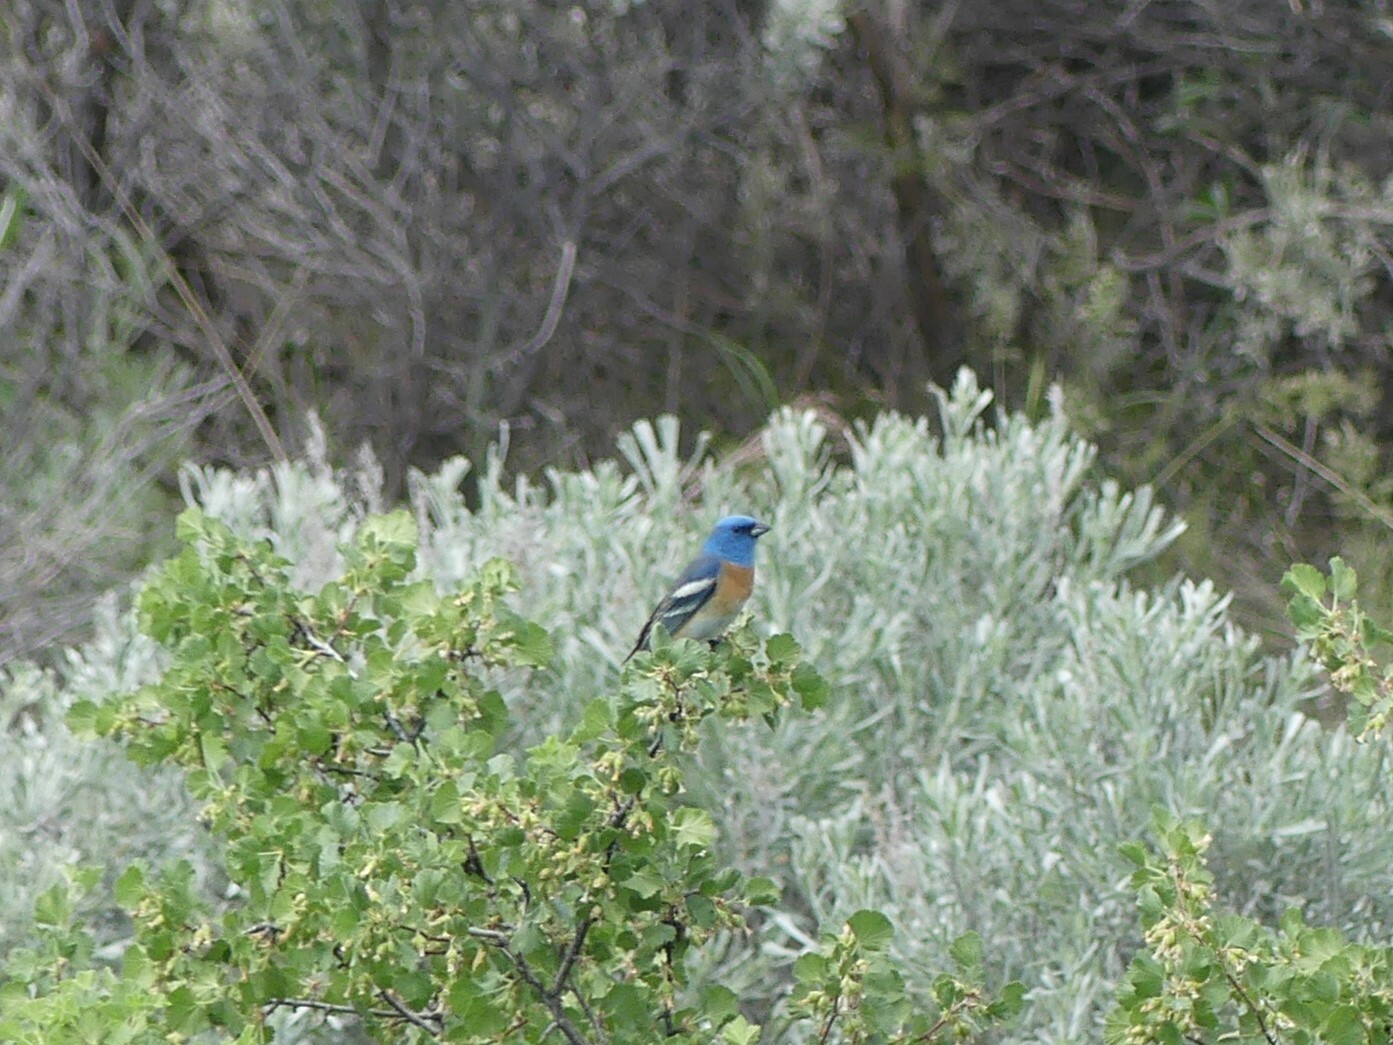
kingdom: Animalia
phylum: Chordata
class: Aves
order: Passeriformes
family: Cardinalidae
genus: Passerina
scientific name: Passerina amoena
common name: Lazuli bunting
